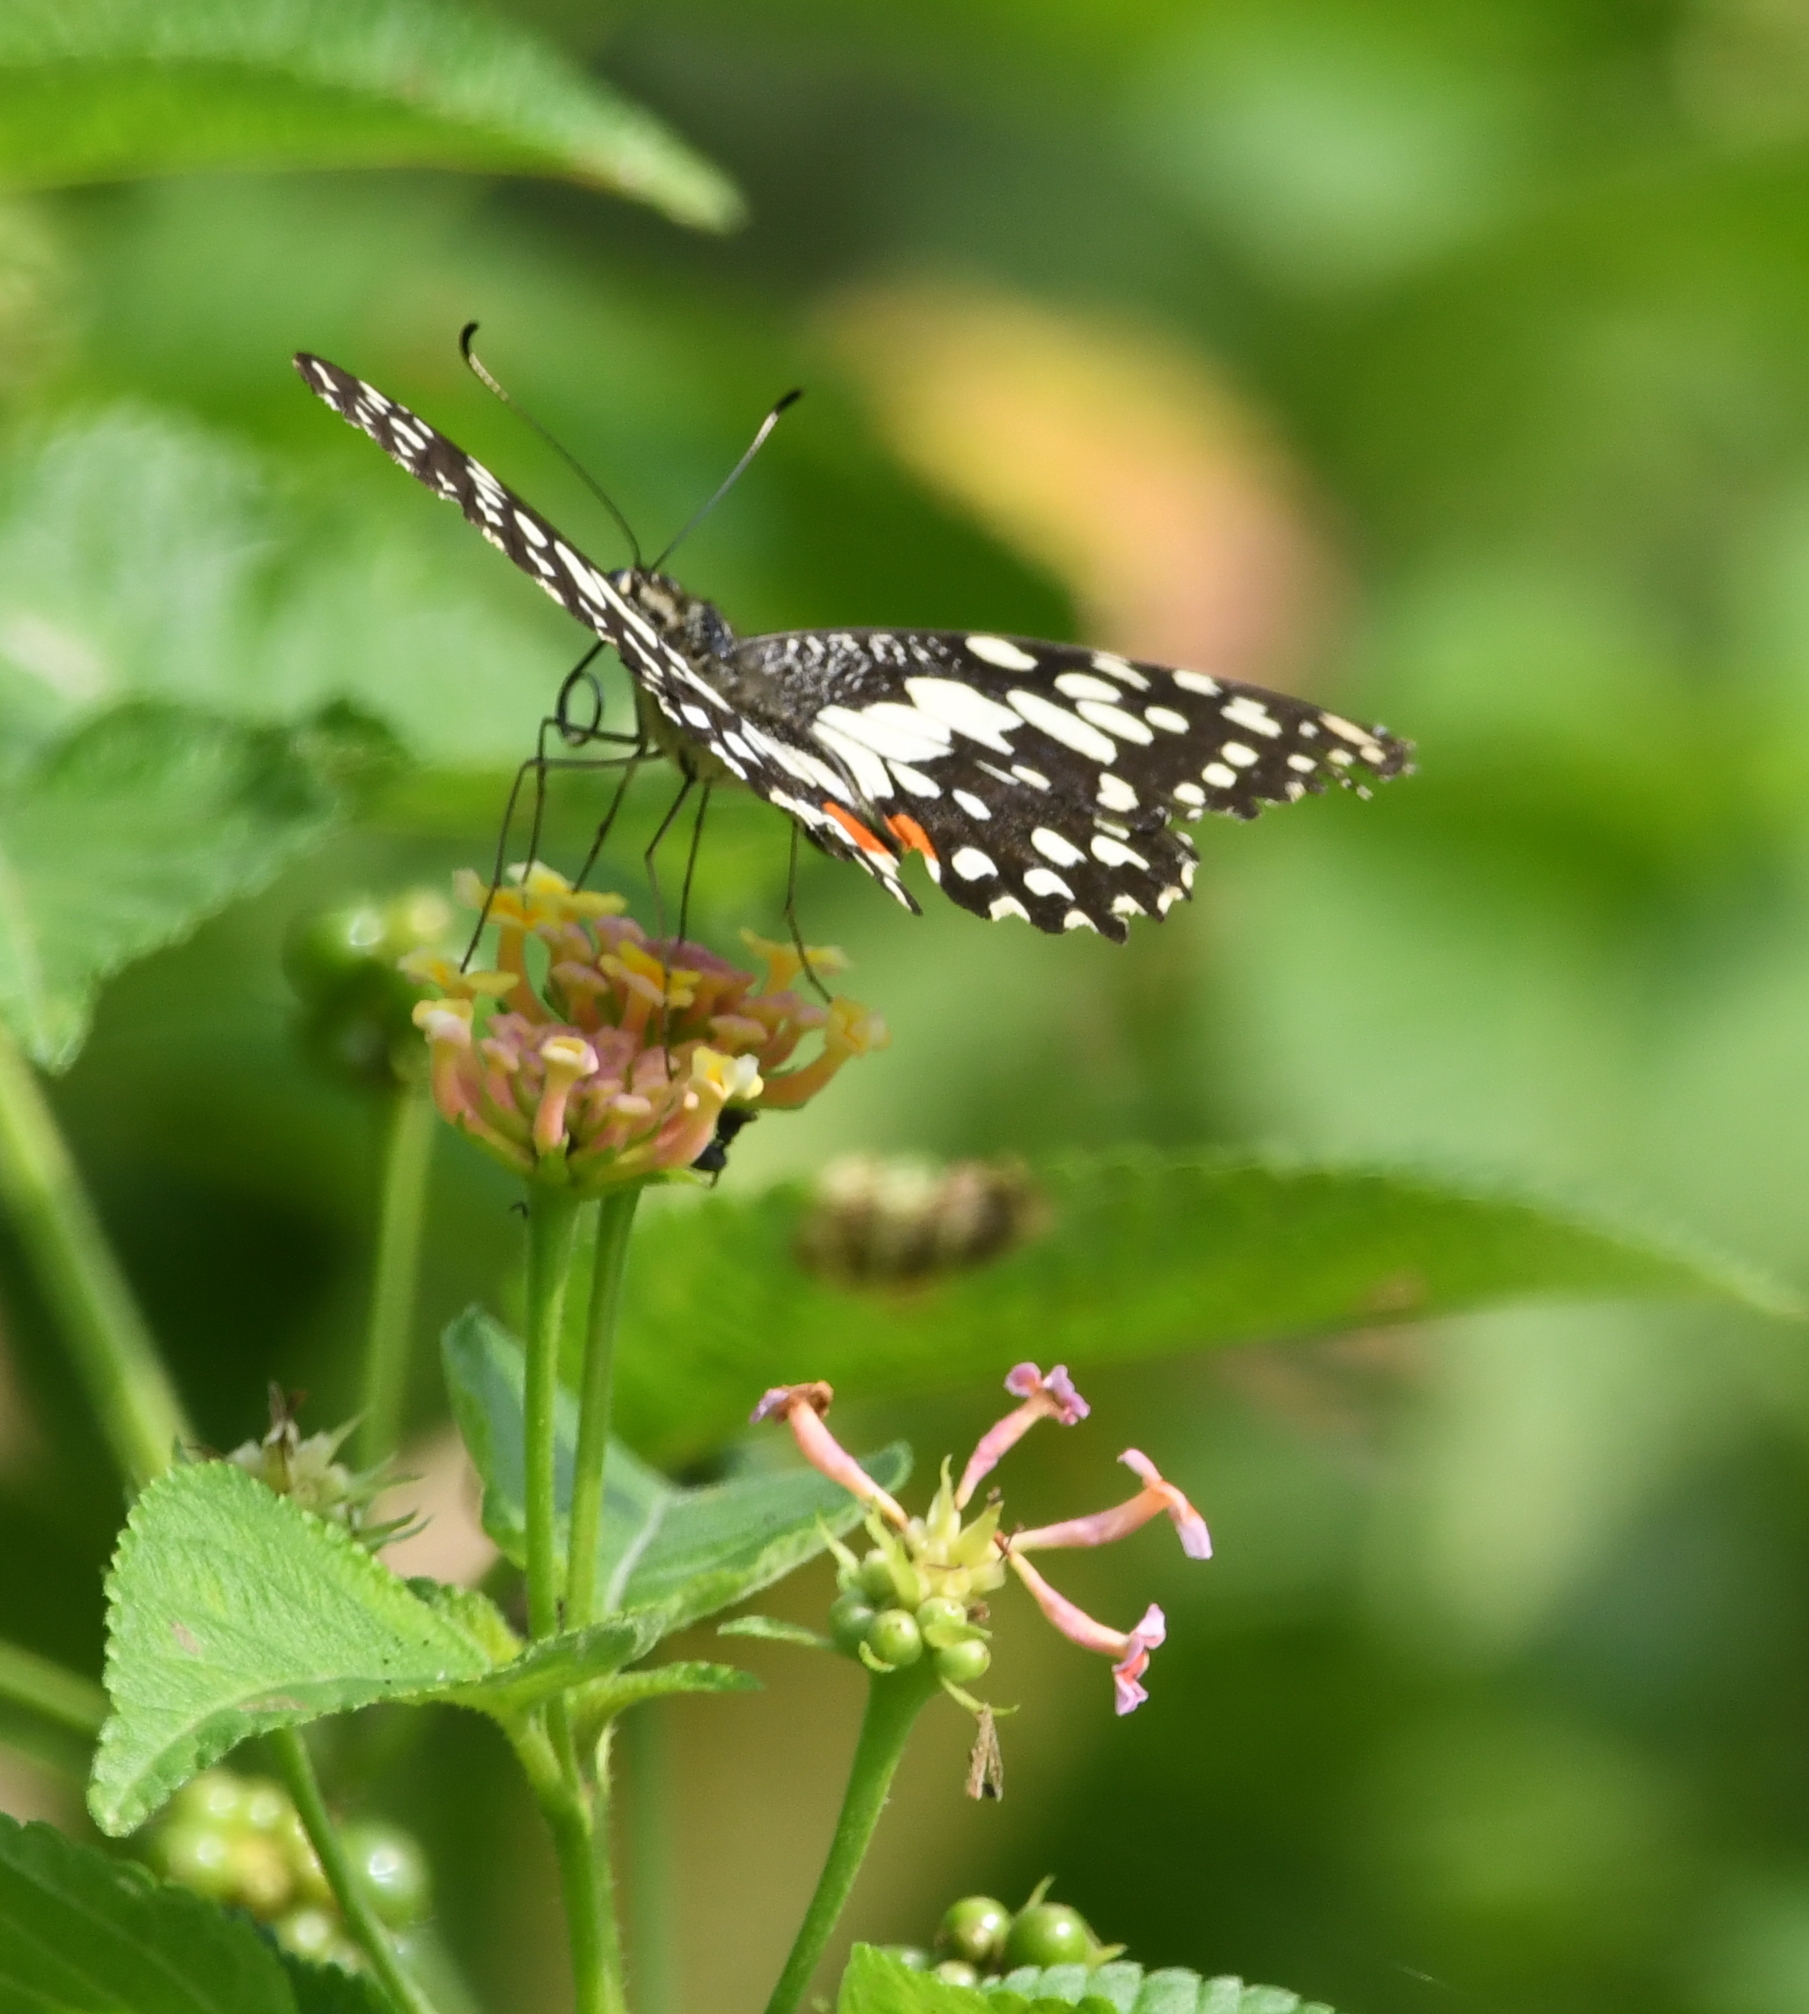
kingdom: Animalia
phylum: Arthropoda
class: Insecta
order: Lepidoptera
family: Papilionidae
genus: Papilio
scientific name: Papilio demoleus
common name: Lime butterfly
